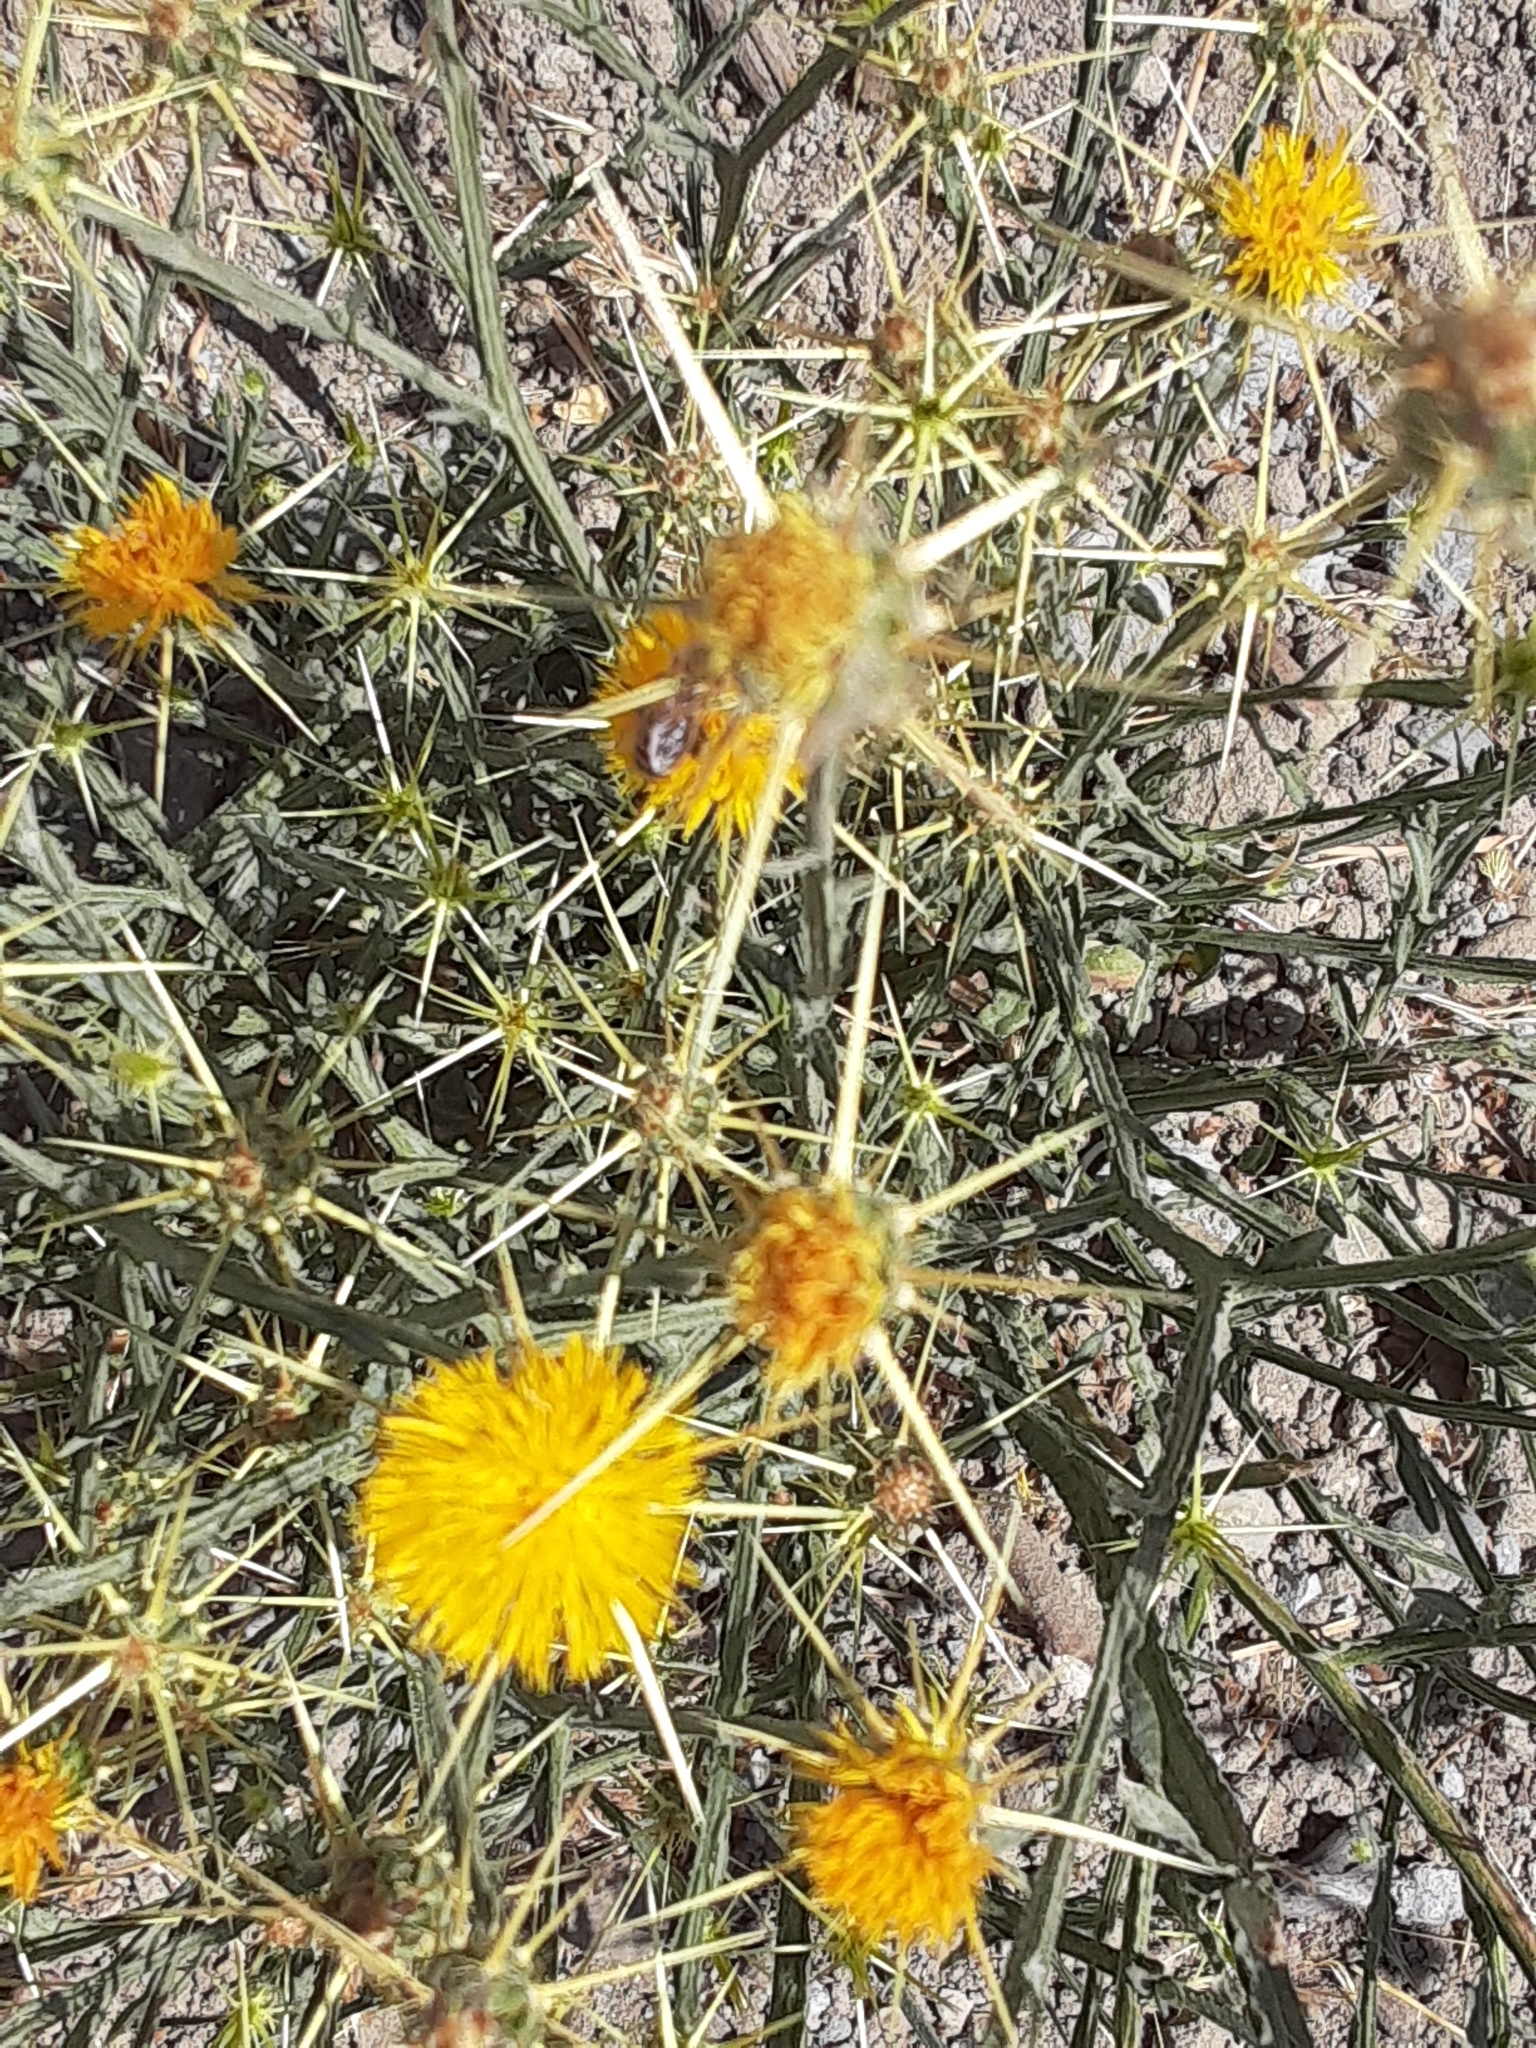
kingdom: Plantae
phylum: Tracheophyta
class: Magnoliopsida
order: Asterales
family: Asteraceae
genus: Centaurea
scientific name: Centaurea solstitialis
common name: Yellow star-thistle
